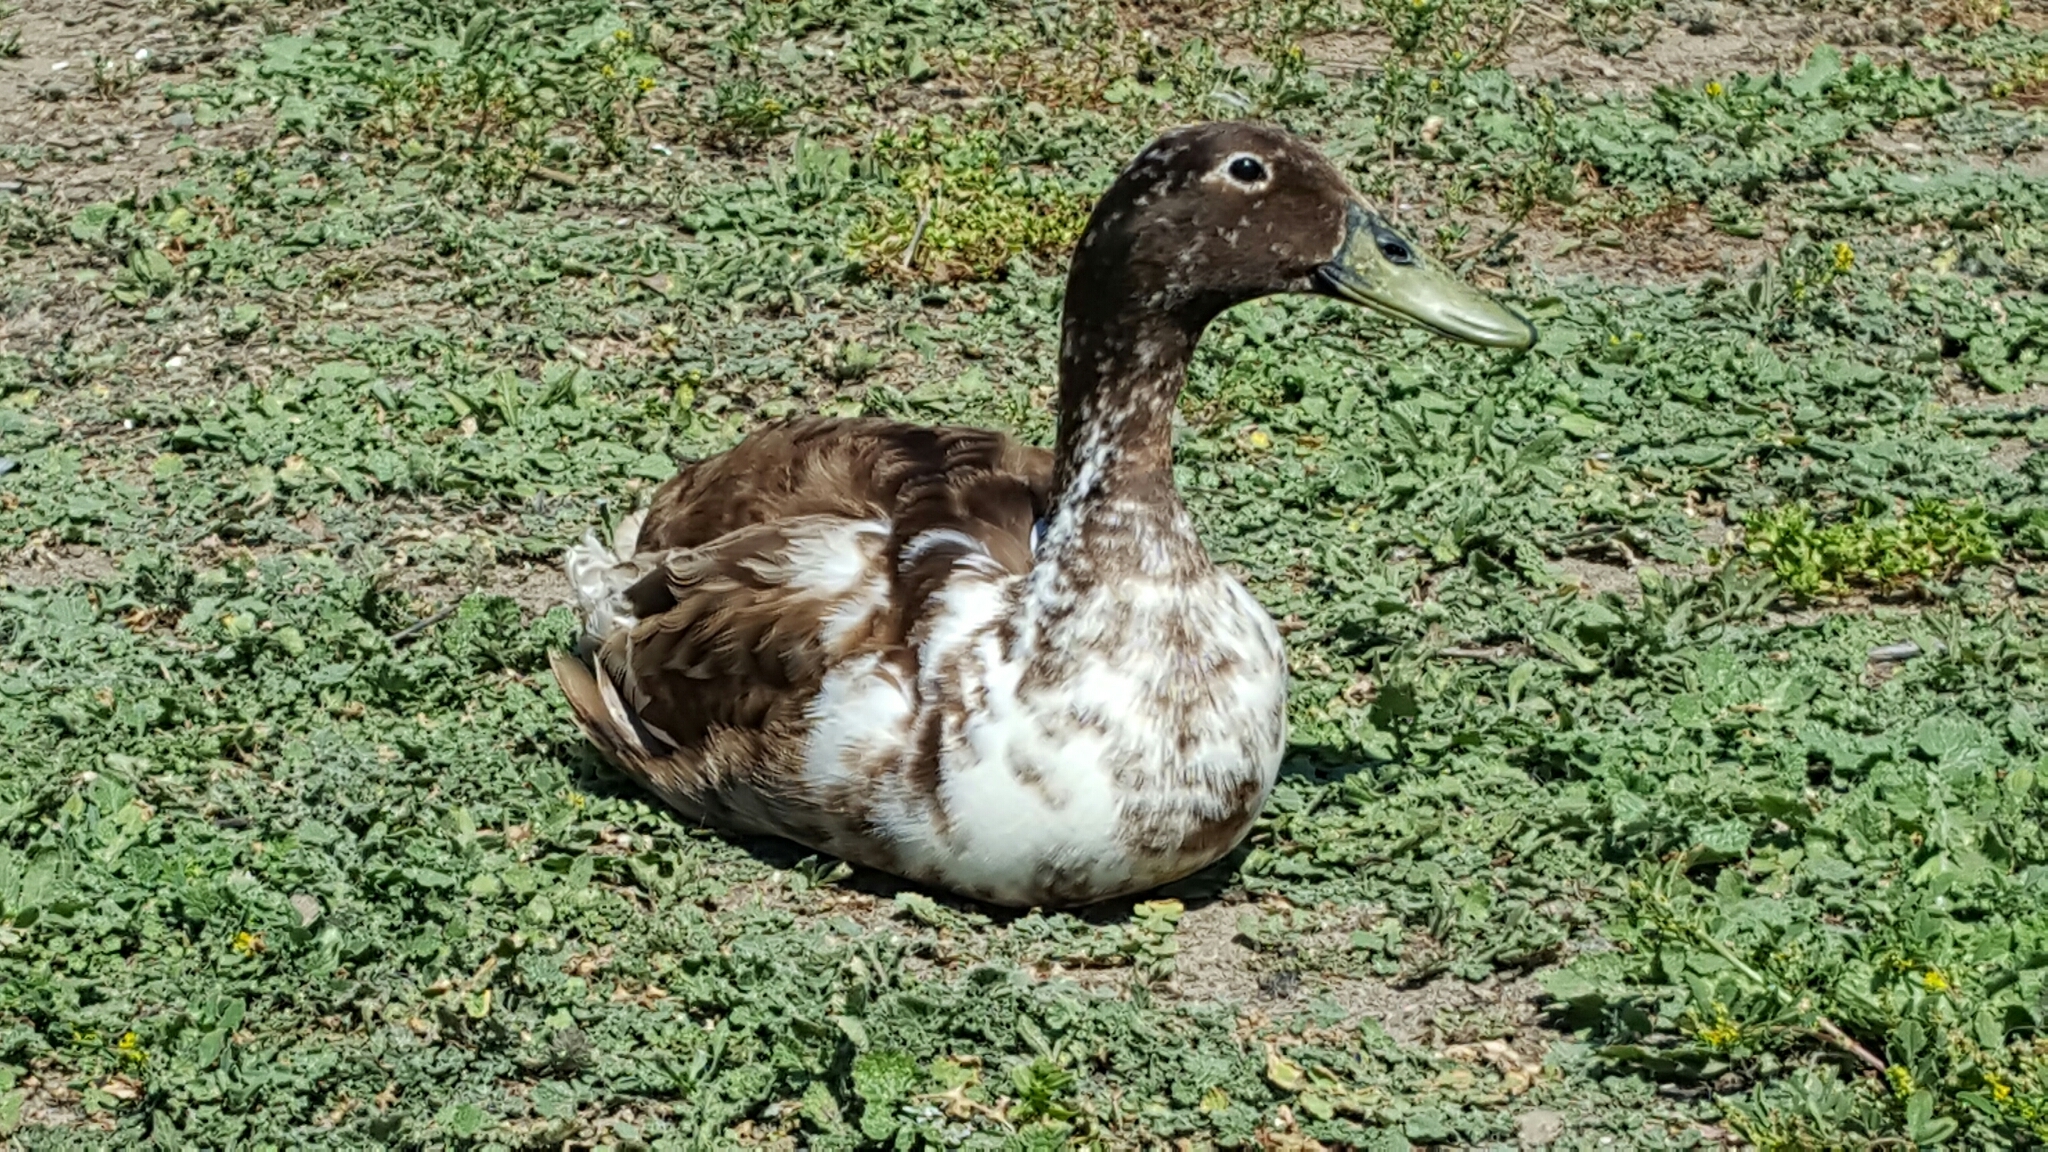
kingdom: Animalia
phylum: Chordata
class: Aves
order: Anseriformes
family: Anatidae
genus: Anas
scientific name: Anas platyrhynchos
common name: Mallard
